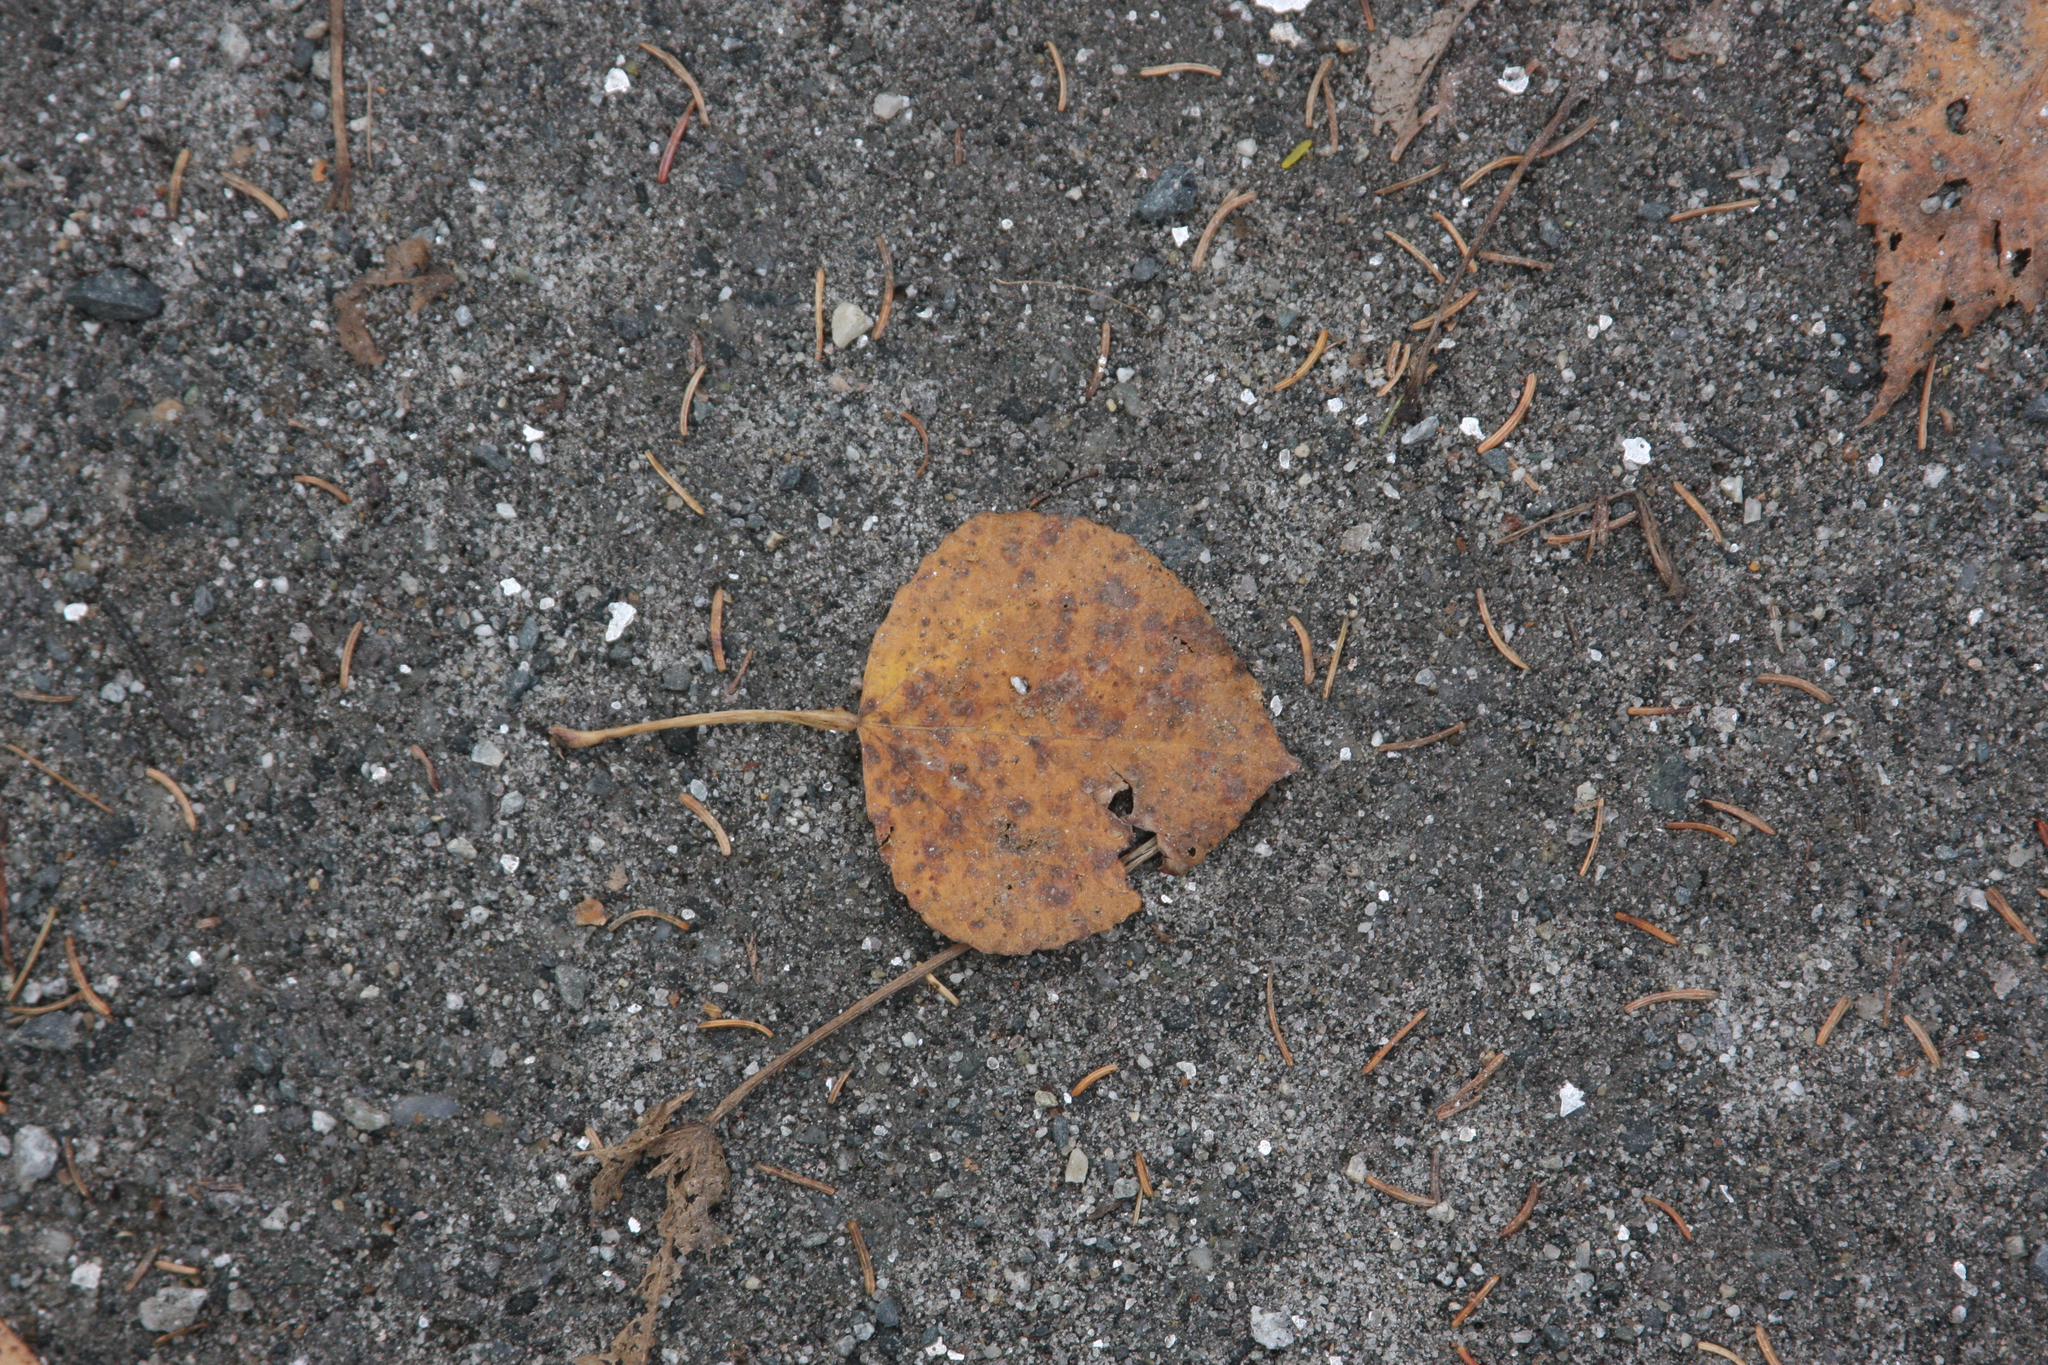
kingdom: Plantae
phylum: Tracheophyta
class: Magnoliopsida
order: Malpighiales
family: Salicaceae
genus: Populus
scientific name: Populus tremuloides
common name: Quaking aspen
